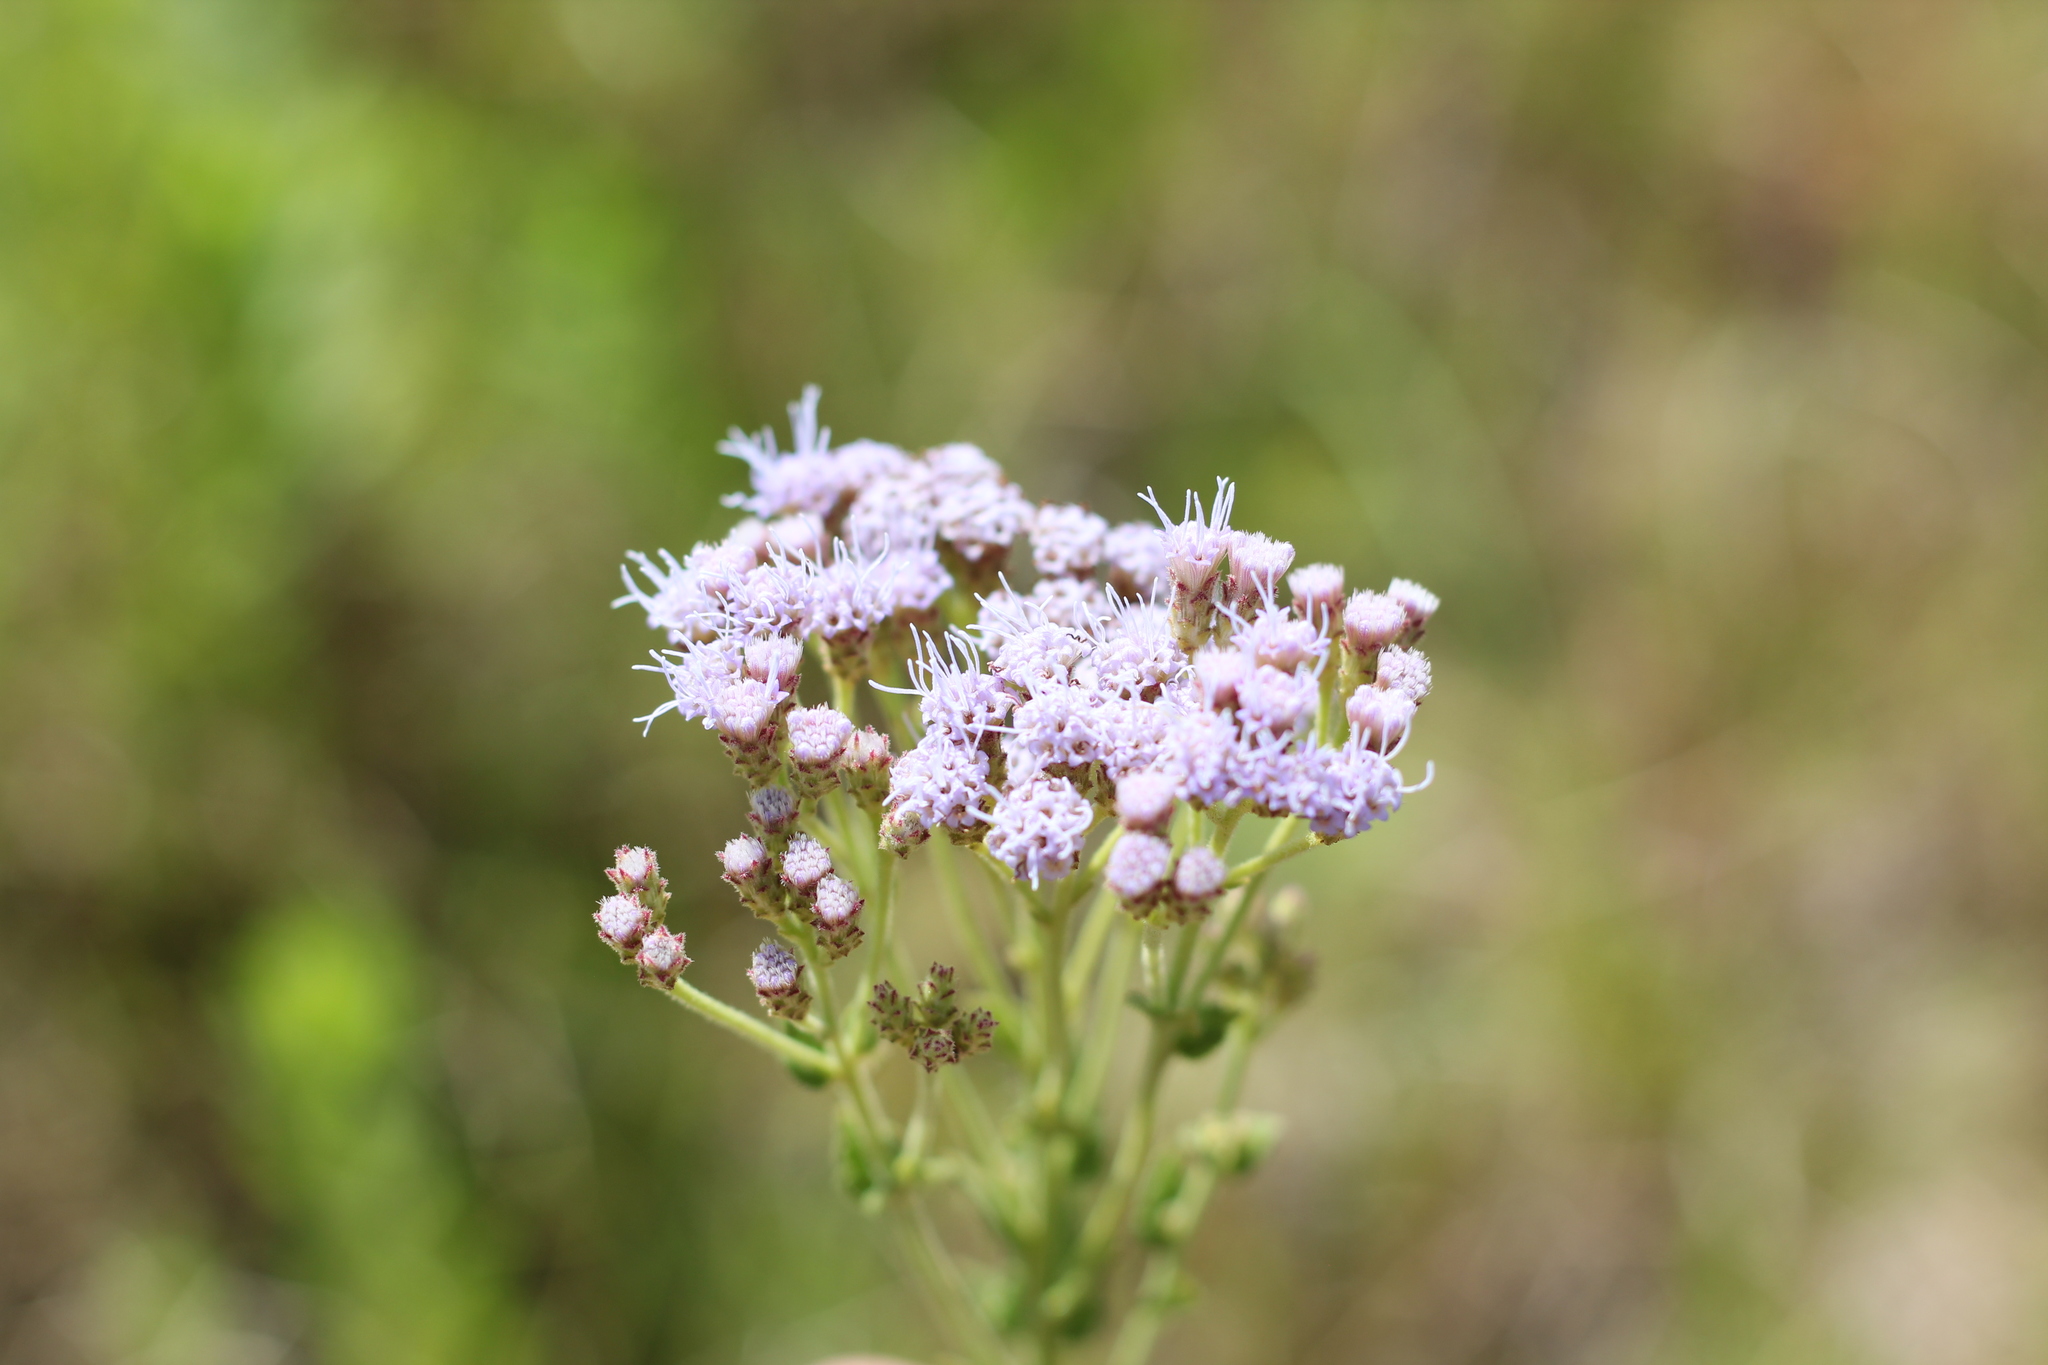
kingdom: Plantae
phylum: Tracheophyta
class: Magnoliopsida
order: Asterales
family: Asteraceae
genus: Chromolaena
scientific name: Chromolaena hirsuta
